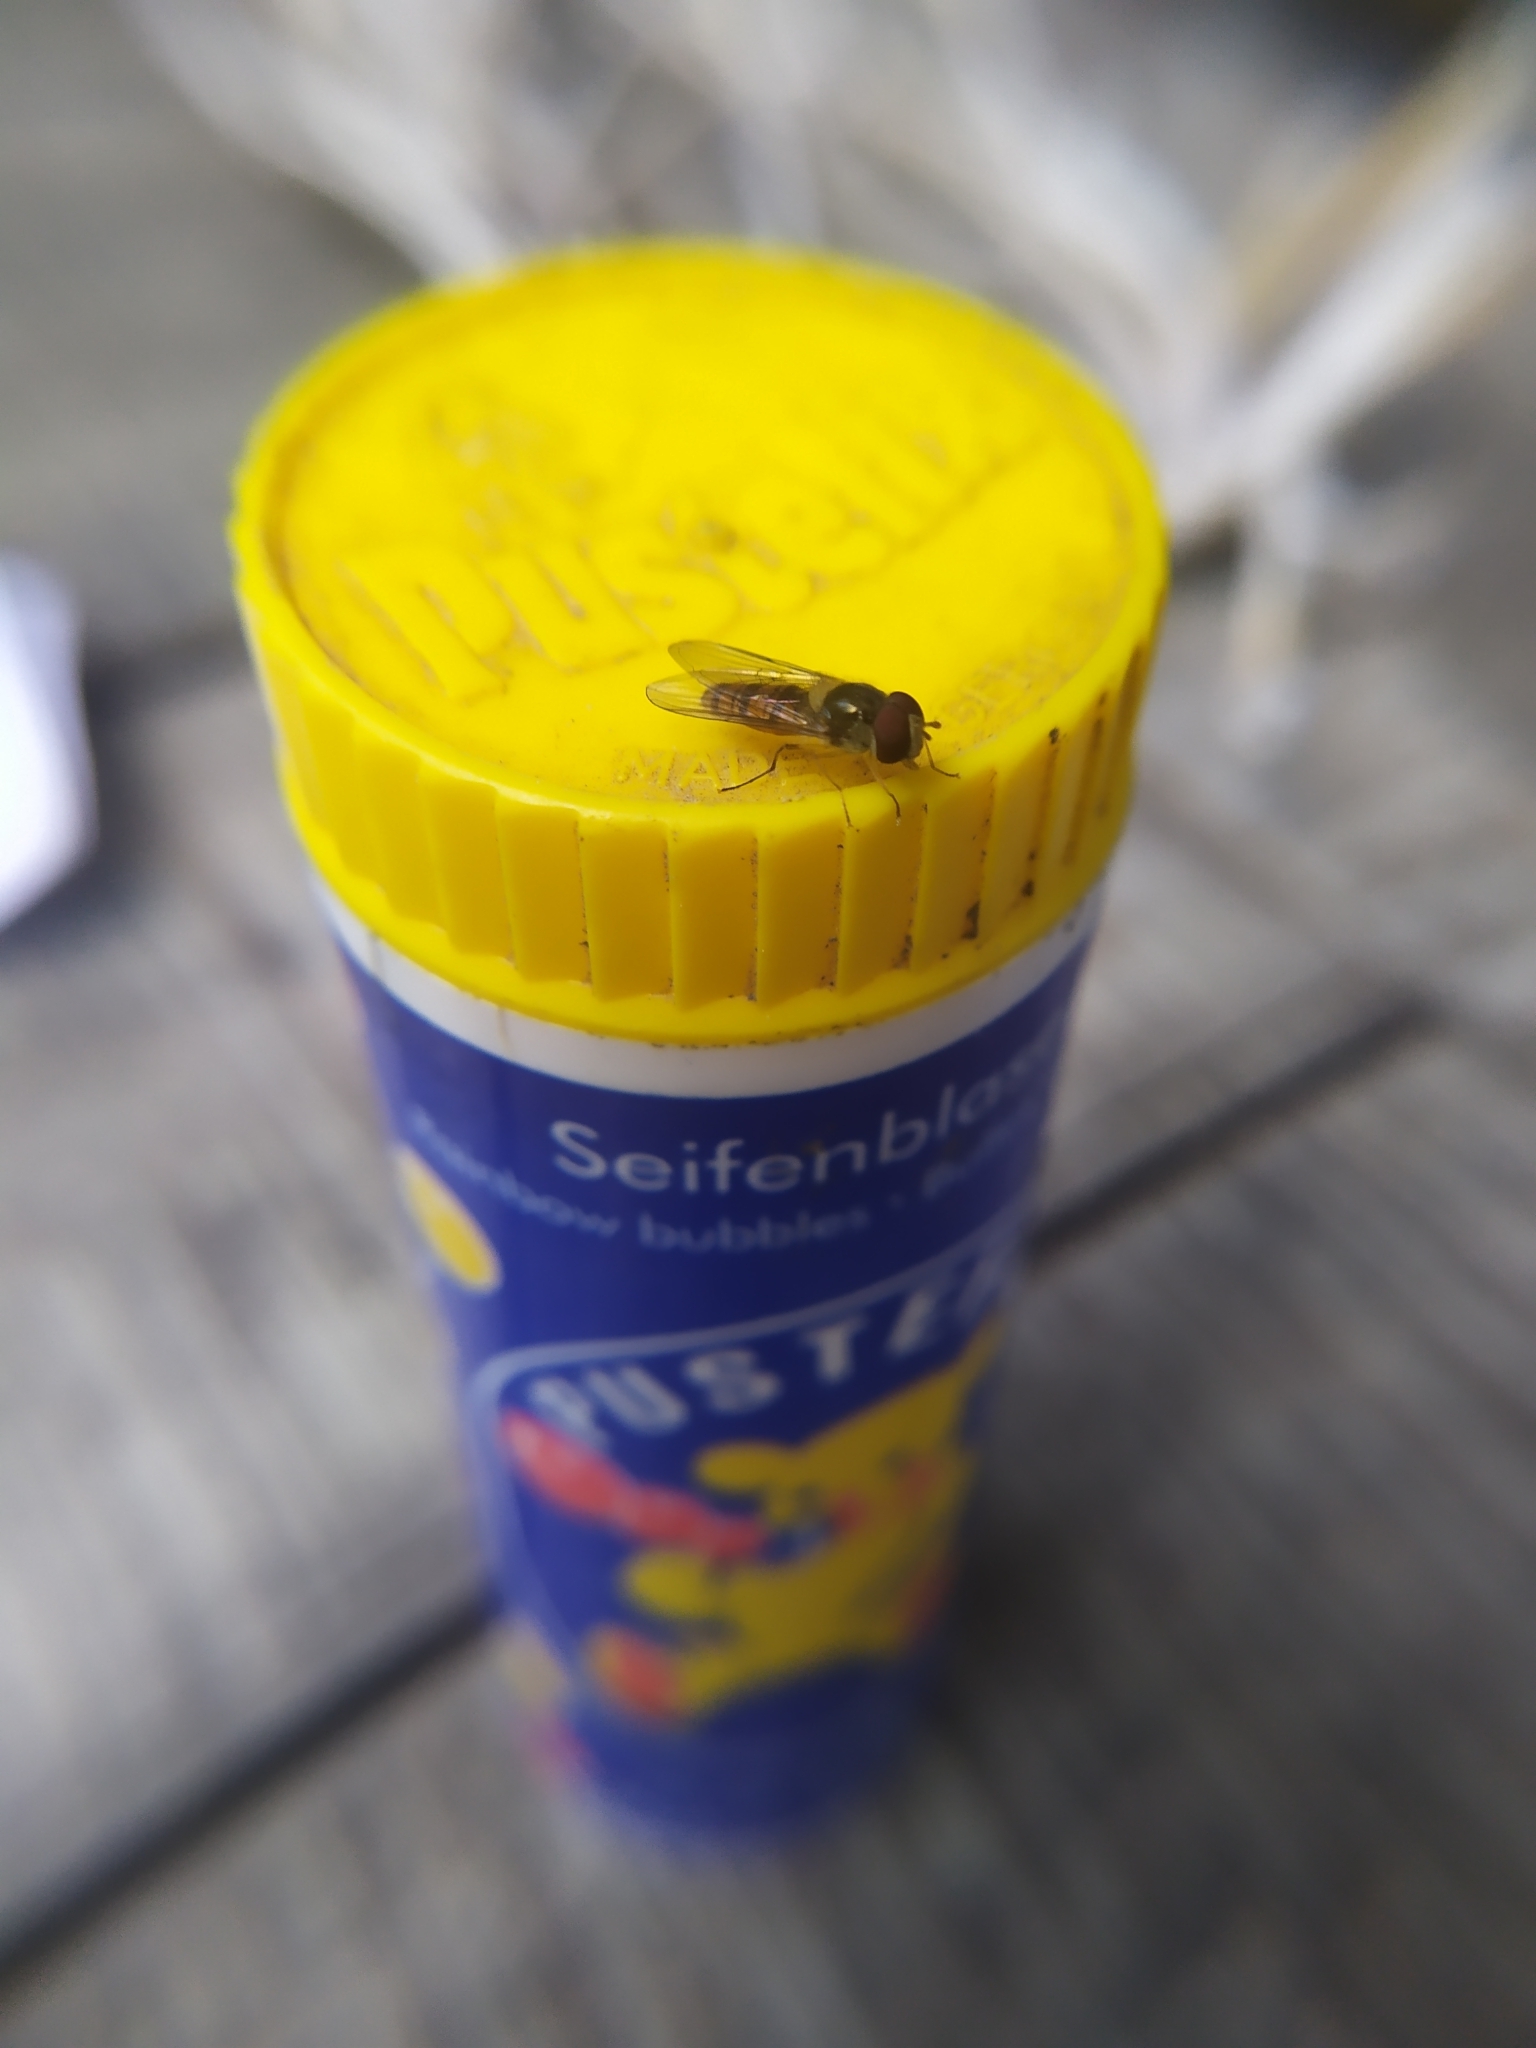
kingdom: Animalia
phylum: Arthropoda
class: Insecta
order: Diptera
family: Syrphidae
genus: Episyrphus
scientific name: Episyrphus balteatus
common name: Marmalade hoverfly
